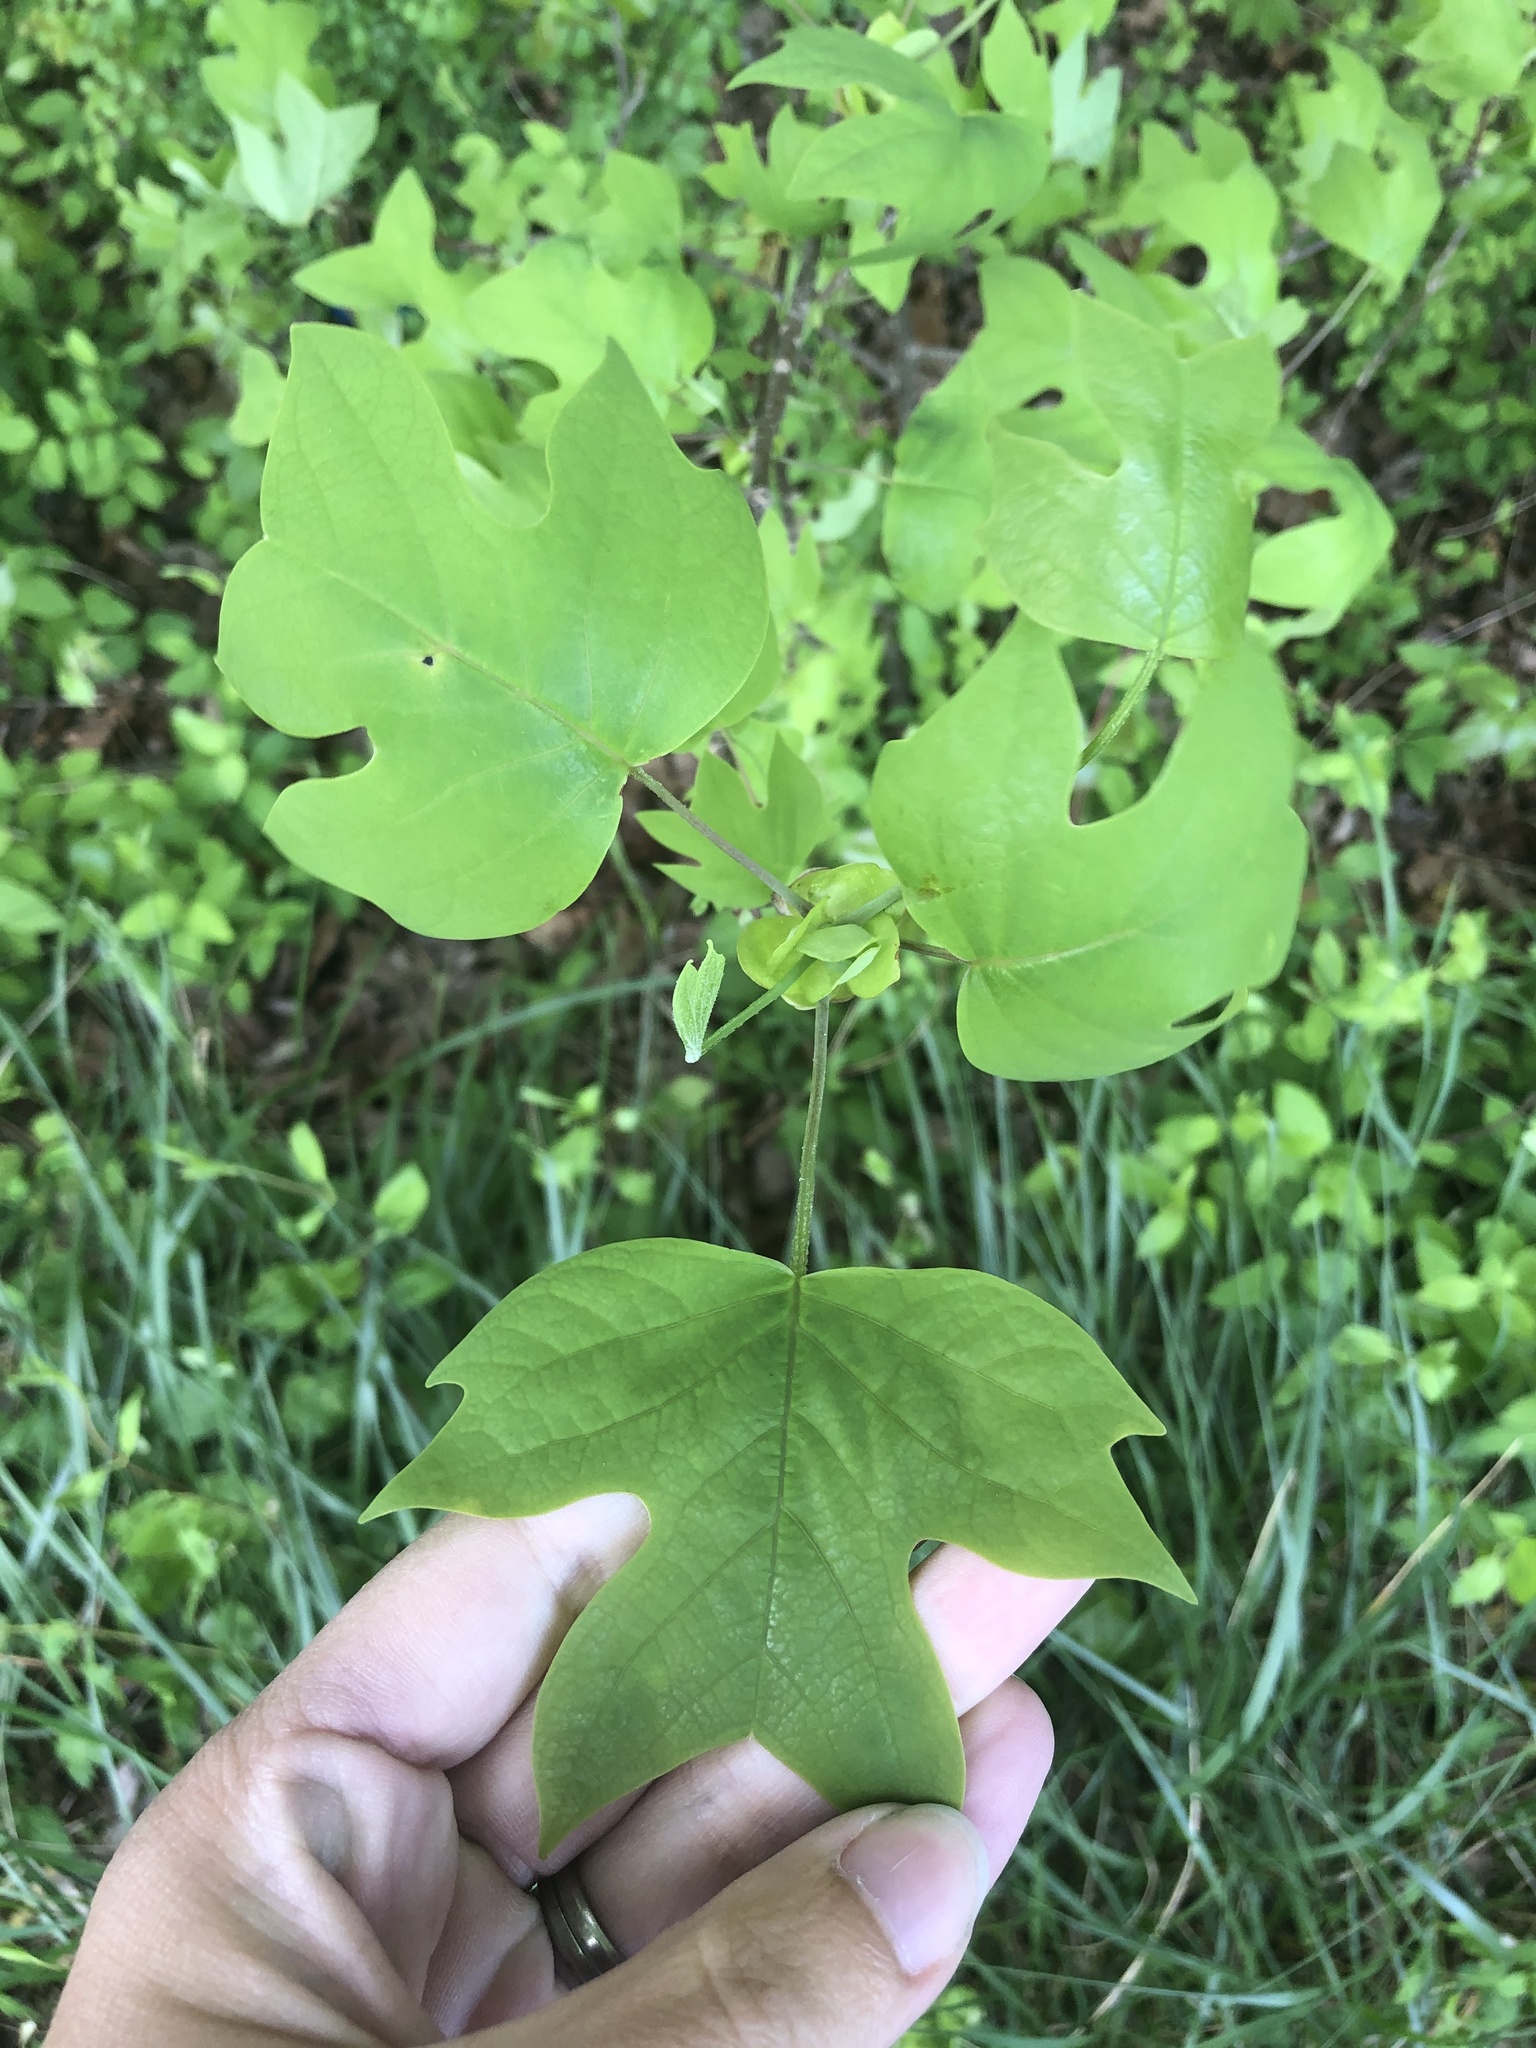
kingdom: Plantae
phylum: Tracheophyta
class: Magnoliopsida
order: Magnoliales
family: Magnoliaceae
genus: Liriodendron
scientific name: Liriodendron tulipifera
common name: Tulip tree
